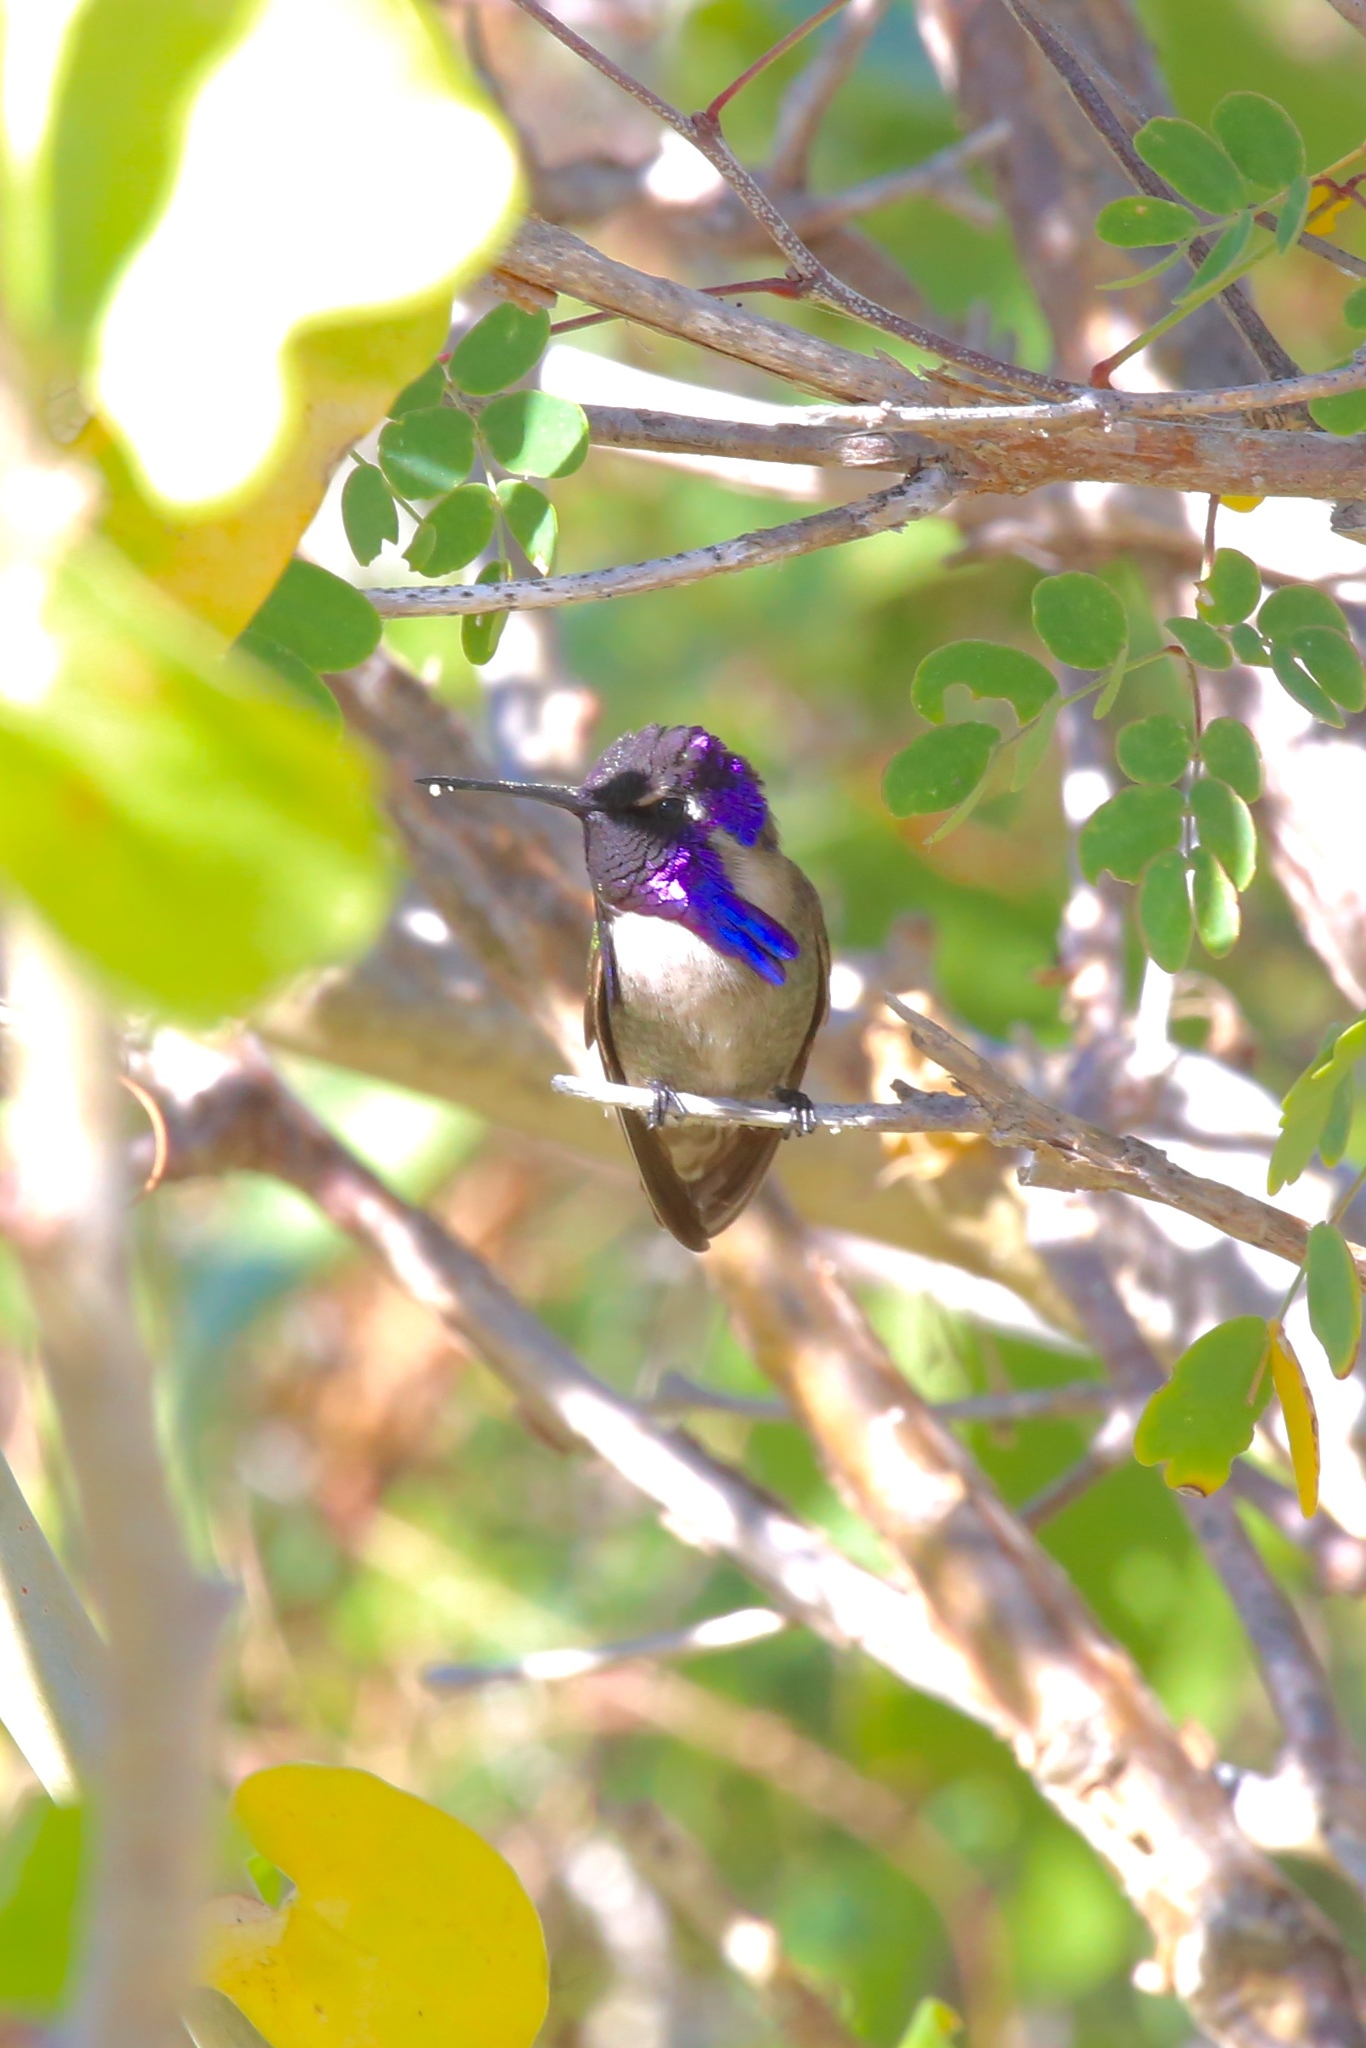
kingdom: Animalia
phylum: Chordata
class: Aves
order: Apodiformes
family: Trochilidae
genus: Calypte
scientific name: Calypte costae
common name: Costa's hummingbird
